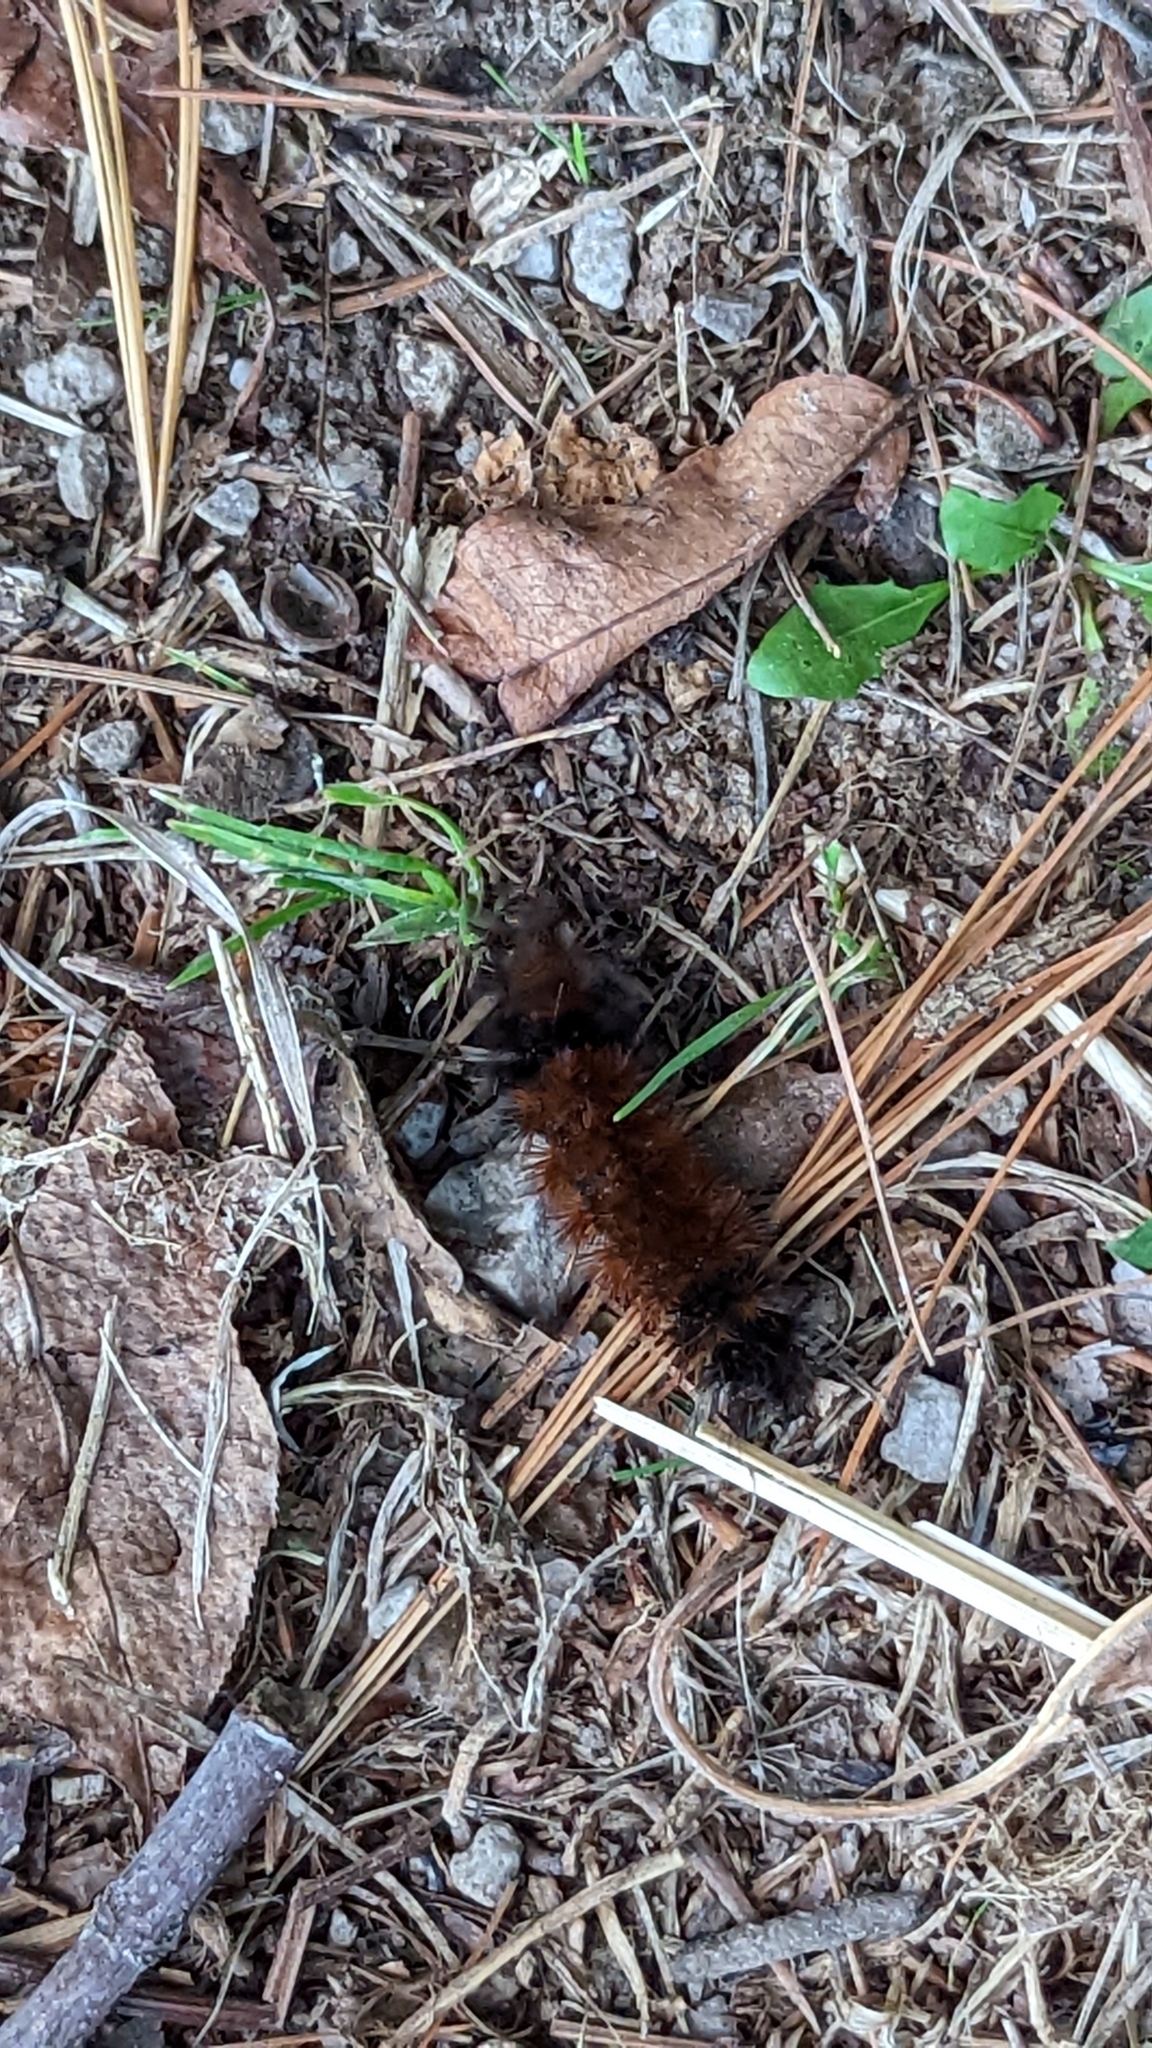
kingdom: Animalia
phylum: Arthropoda
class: Insecta
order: Lepidoptera
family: Erebidae
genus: Pyrrharctia
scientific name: Pyrrharctia isabella
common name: Isabella tiger moth
